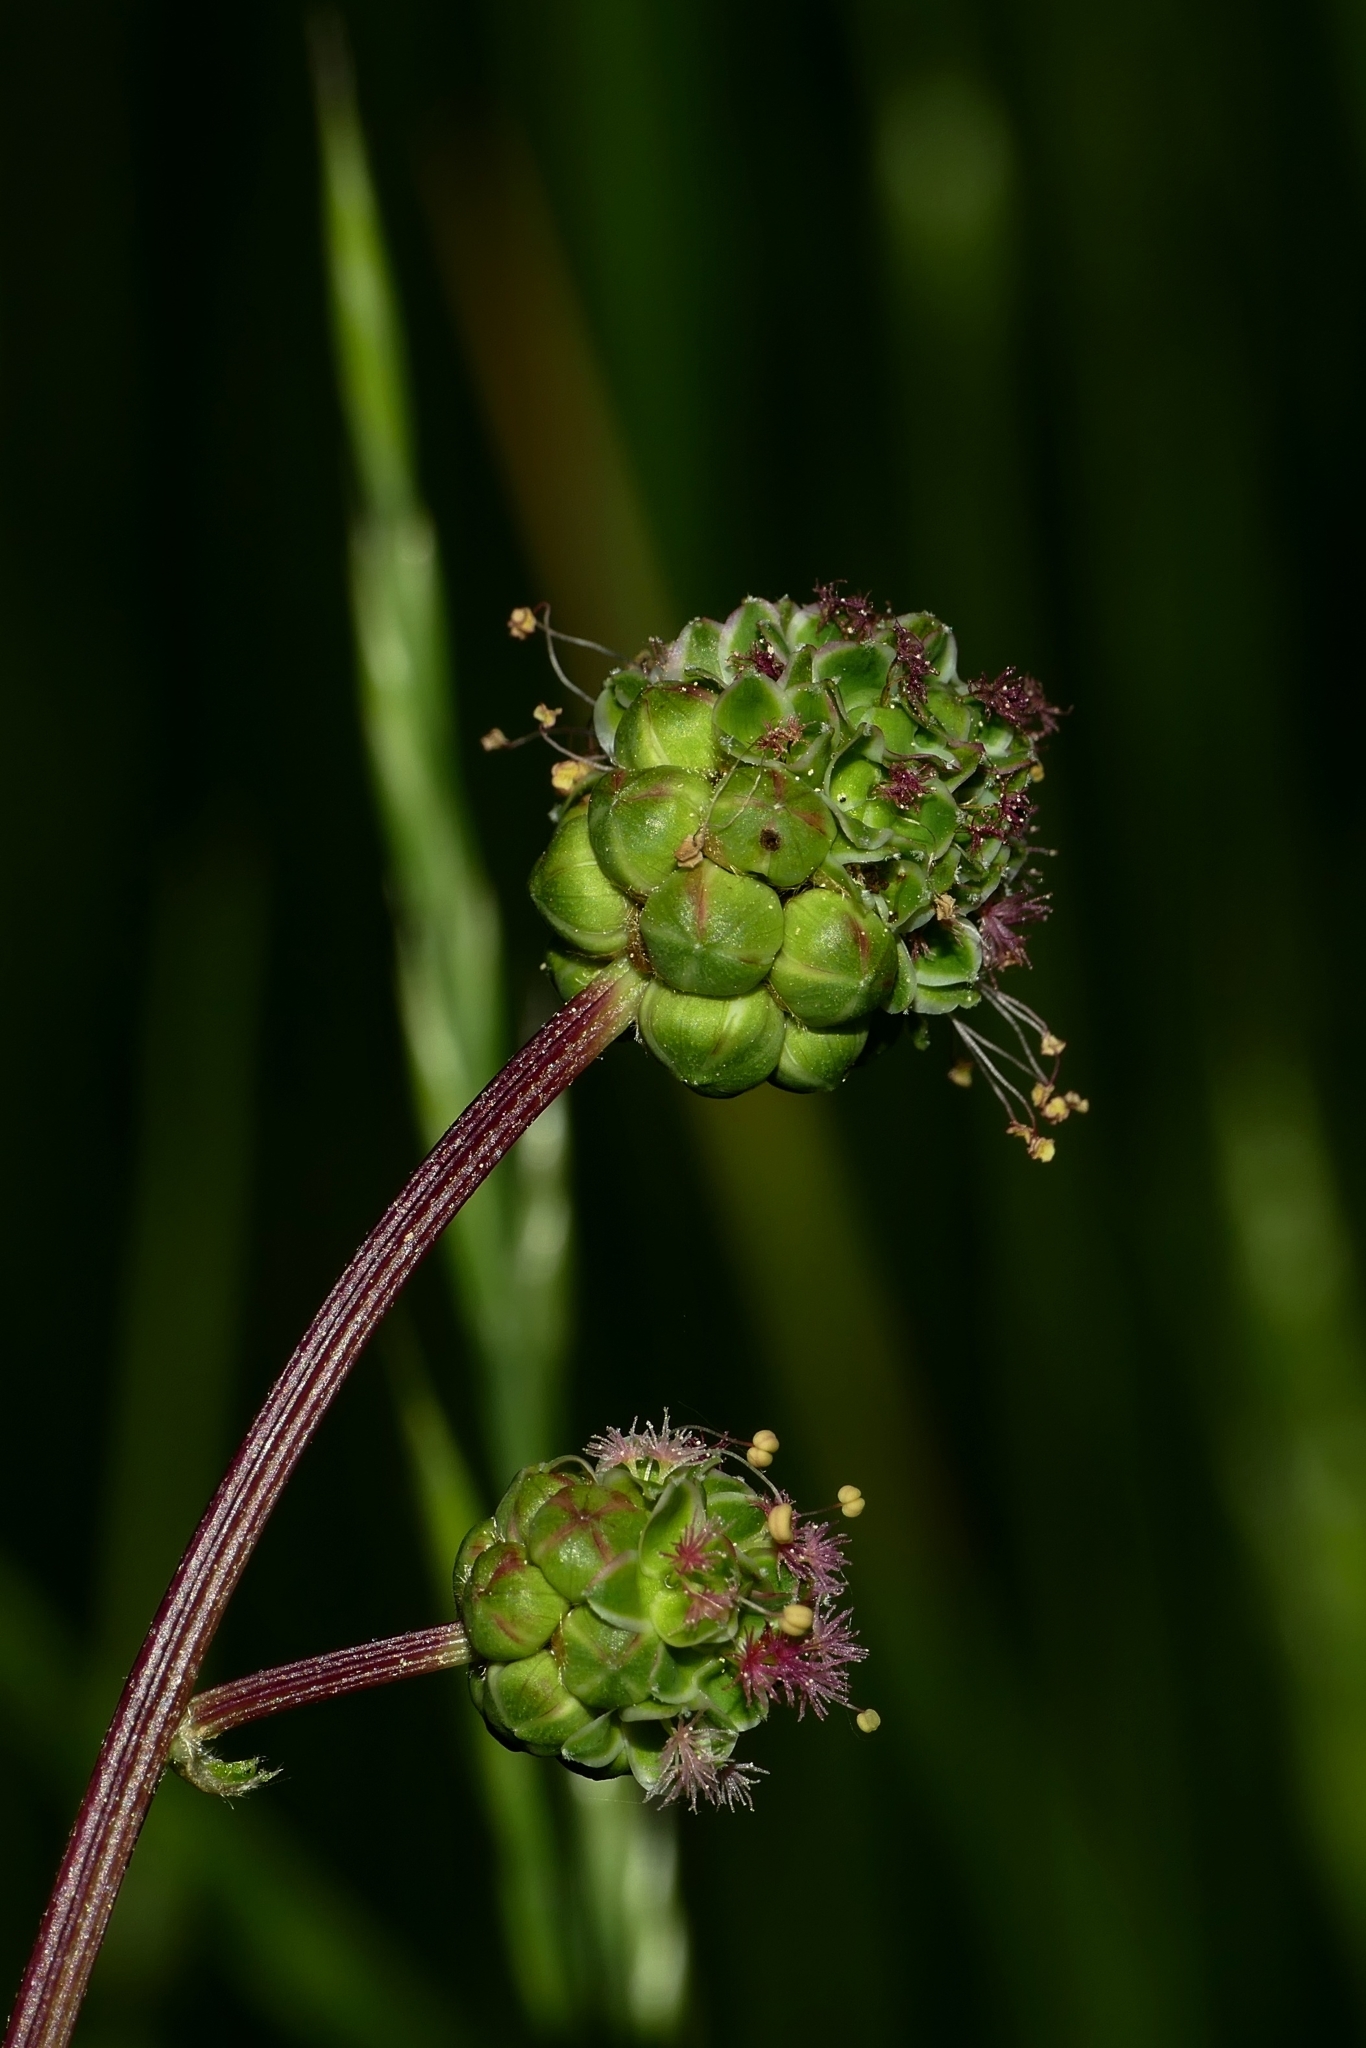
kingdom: Plantae
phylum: Tracheophyta
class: Magnoliopsida
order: Rosales
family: Rosaceae
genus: Poterium
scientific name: Poterium sanguisorba
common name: Salad burnet
